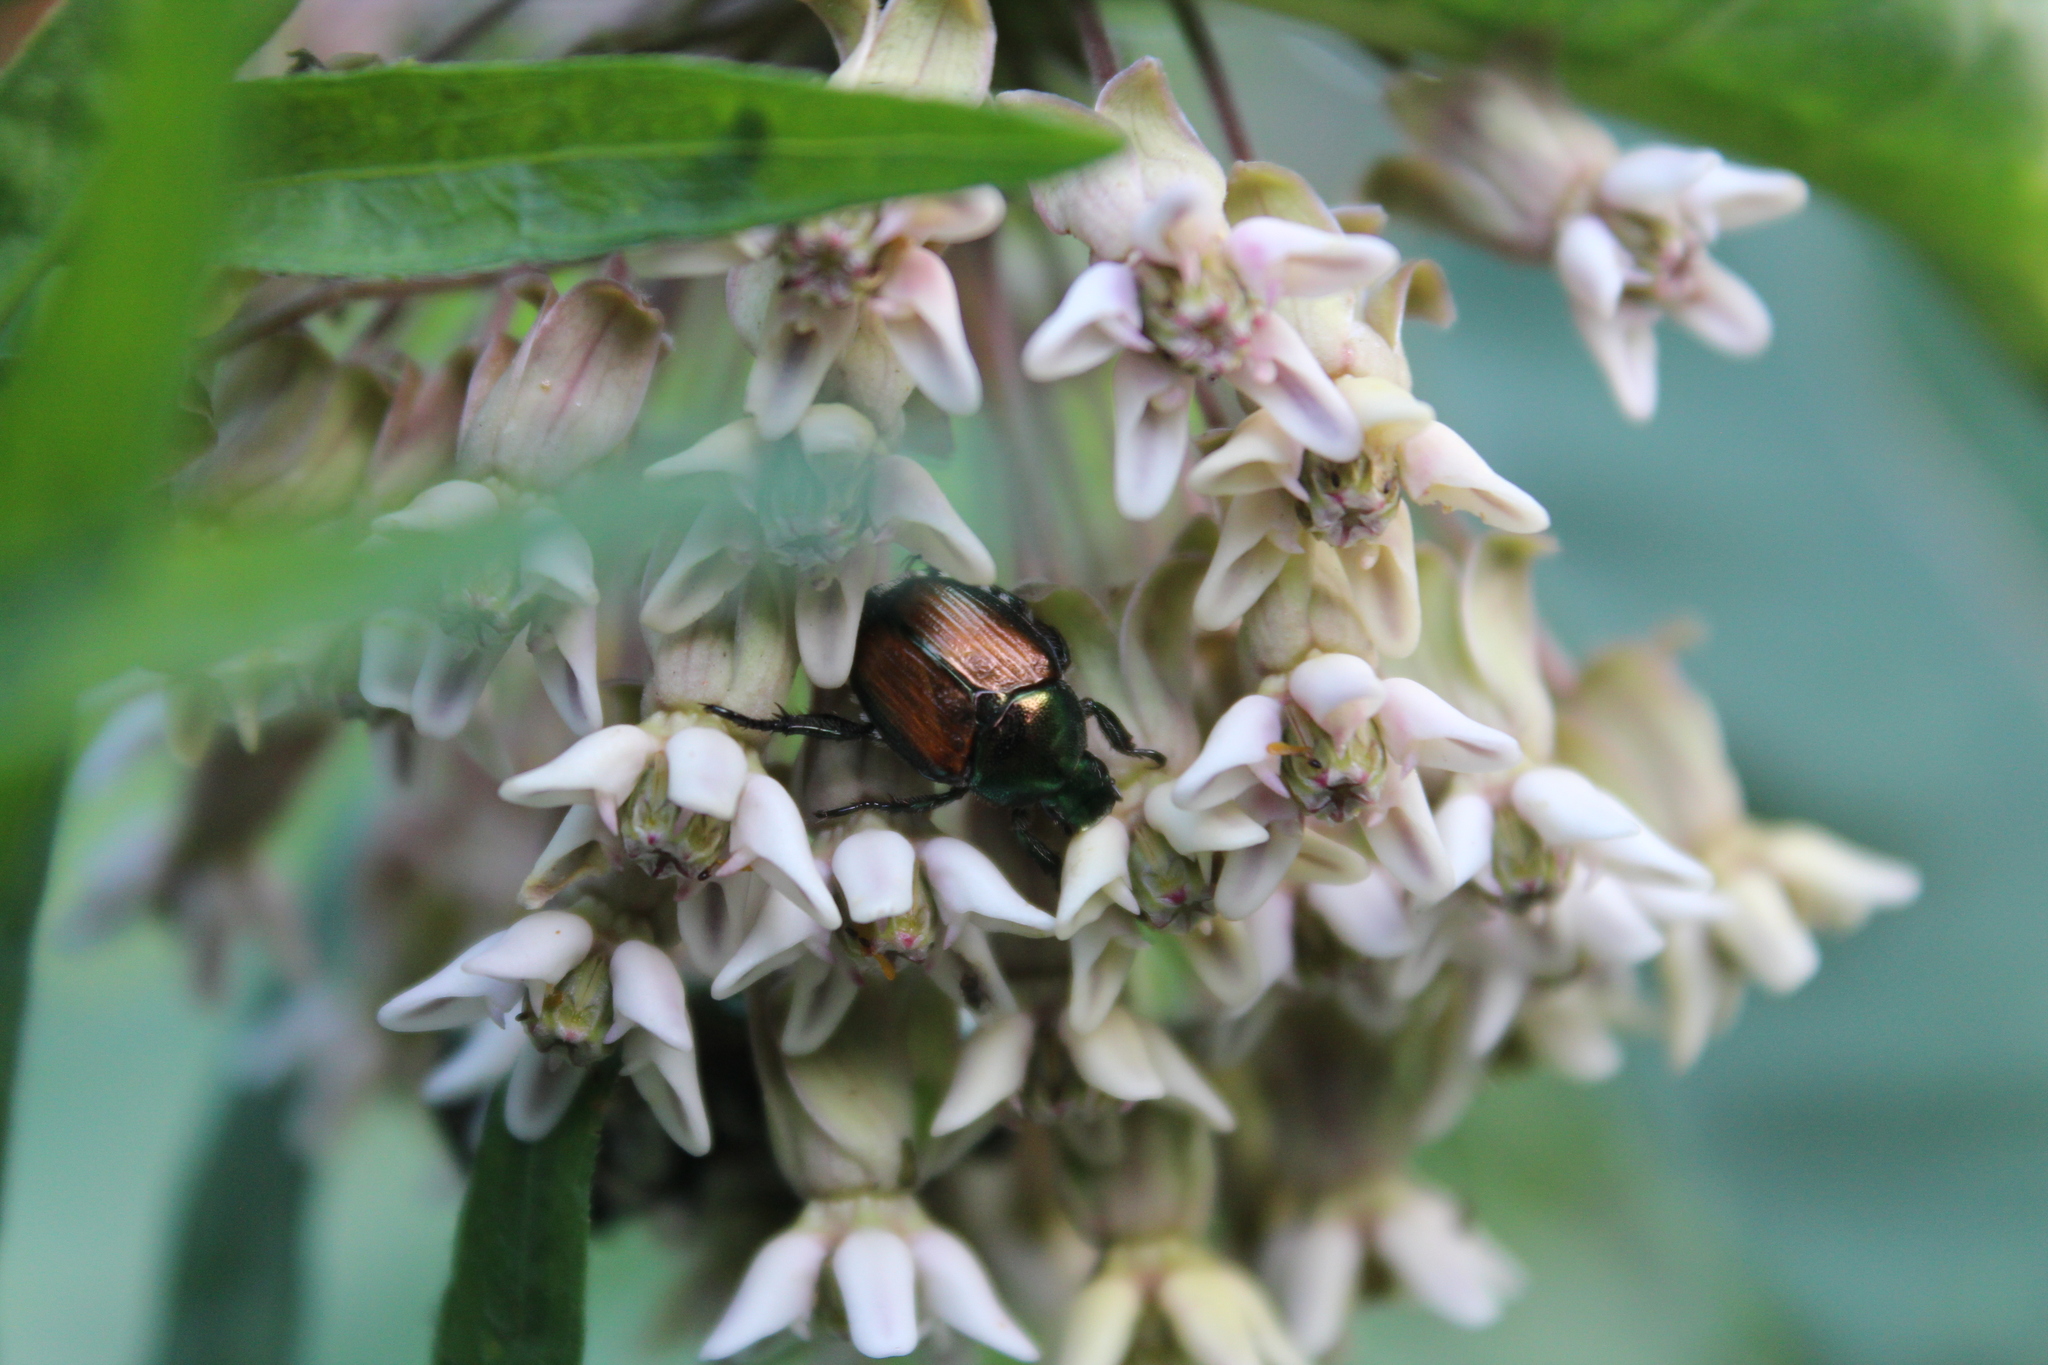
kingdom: Animalia
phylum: Arthropoda
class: Insecta
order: Coleoptera
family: Scarabaeidae
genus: Popillia
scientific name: Popillia japonica
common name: Japanese beetle
